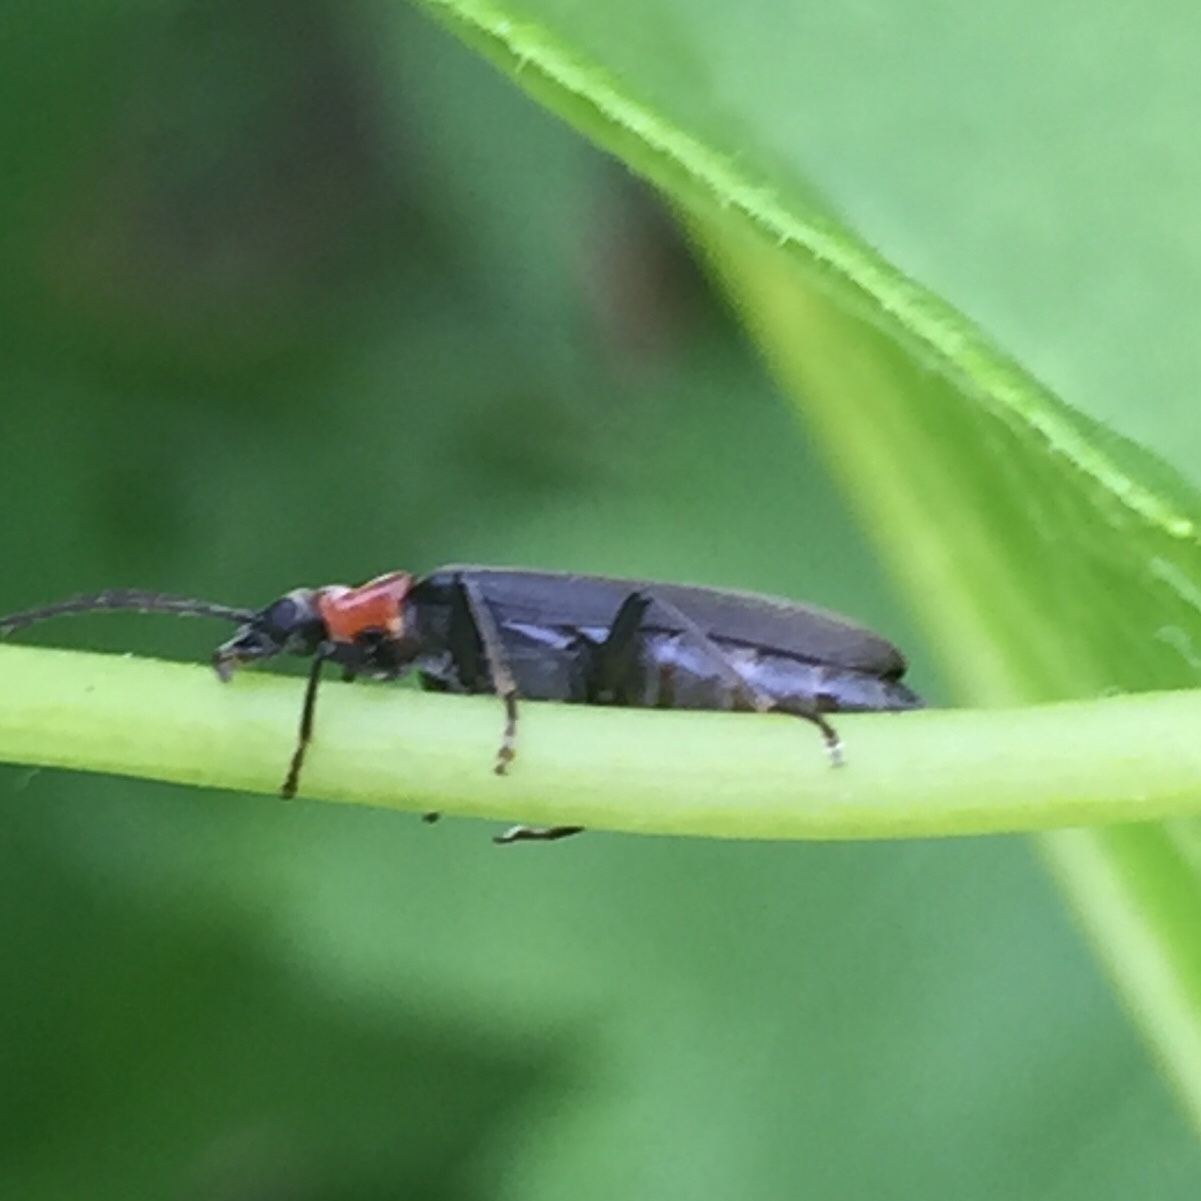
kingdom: Animalia
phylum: Arthropoda
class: Insecta
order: Coleoptera
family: Oedemeridae
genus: Ischnomera
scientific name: Ischnomera
